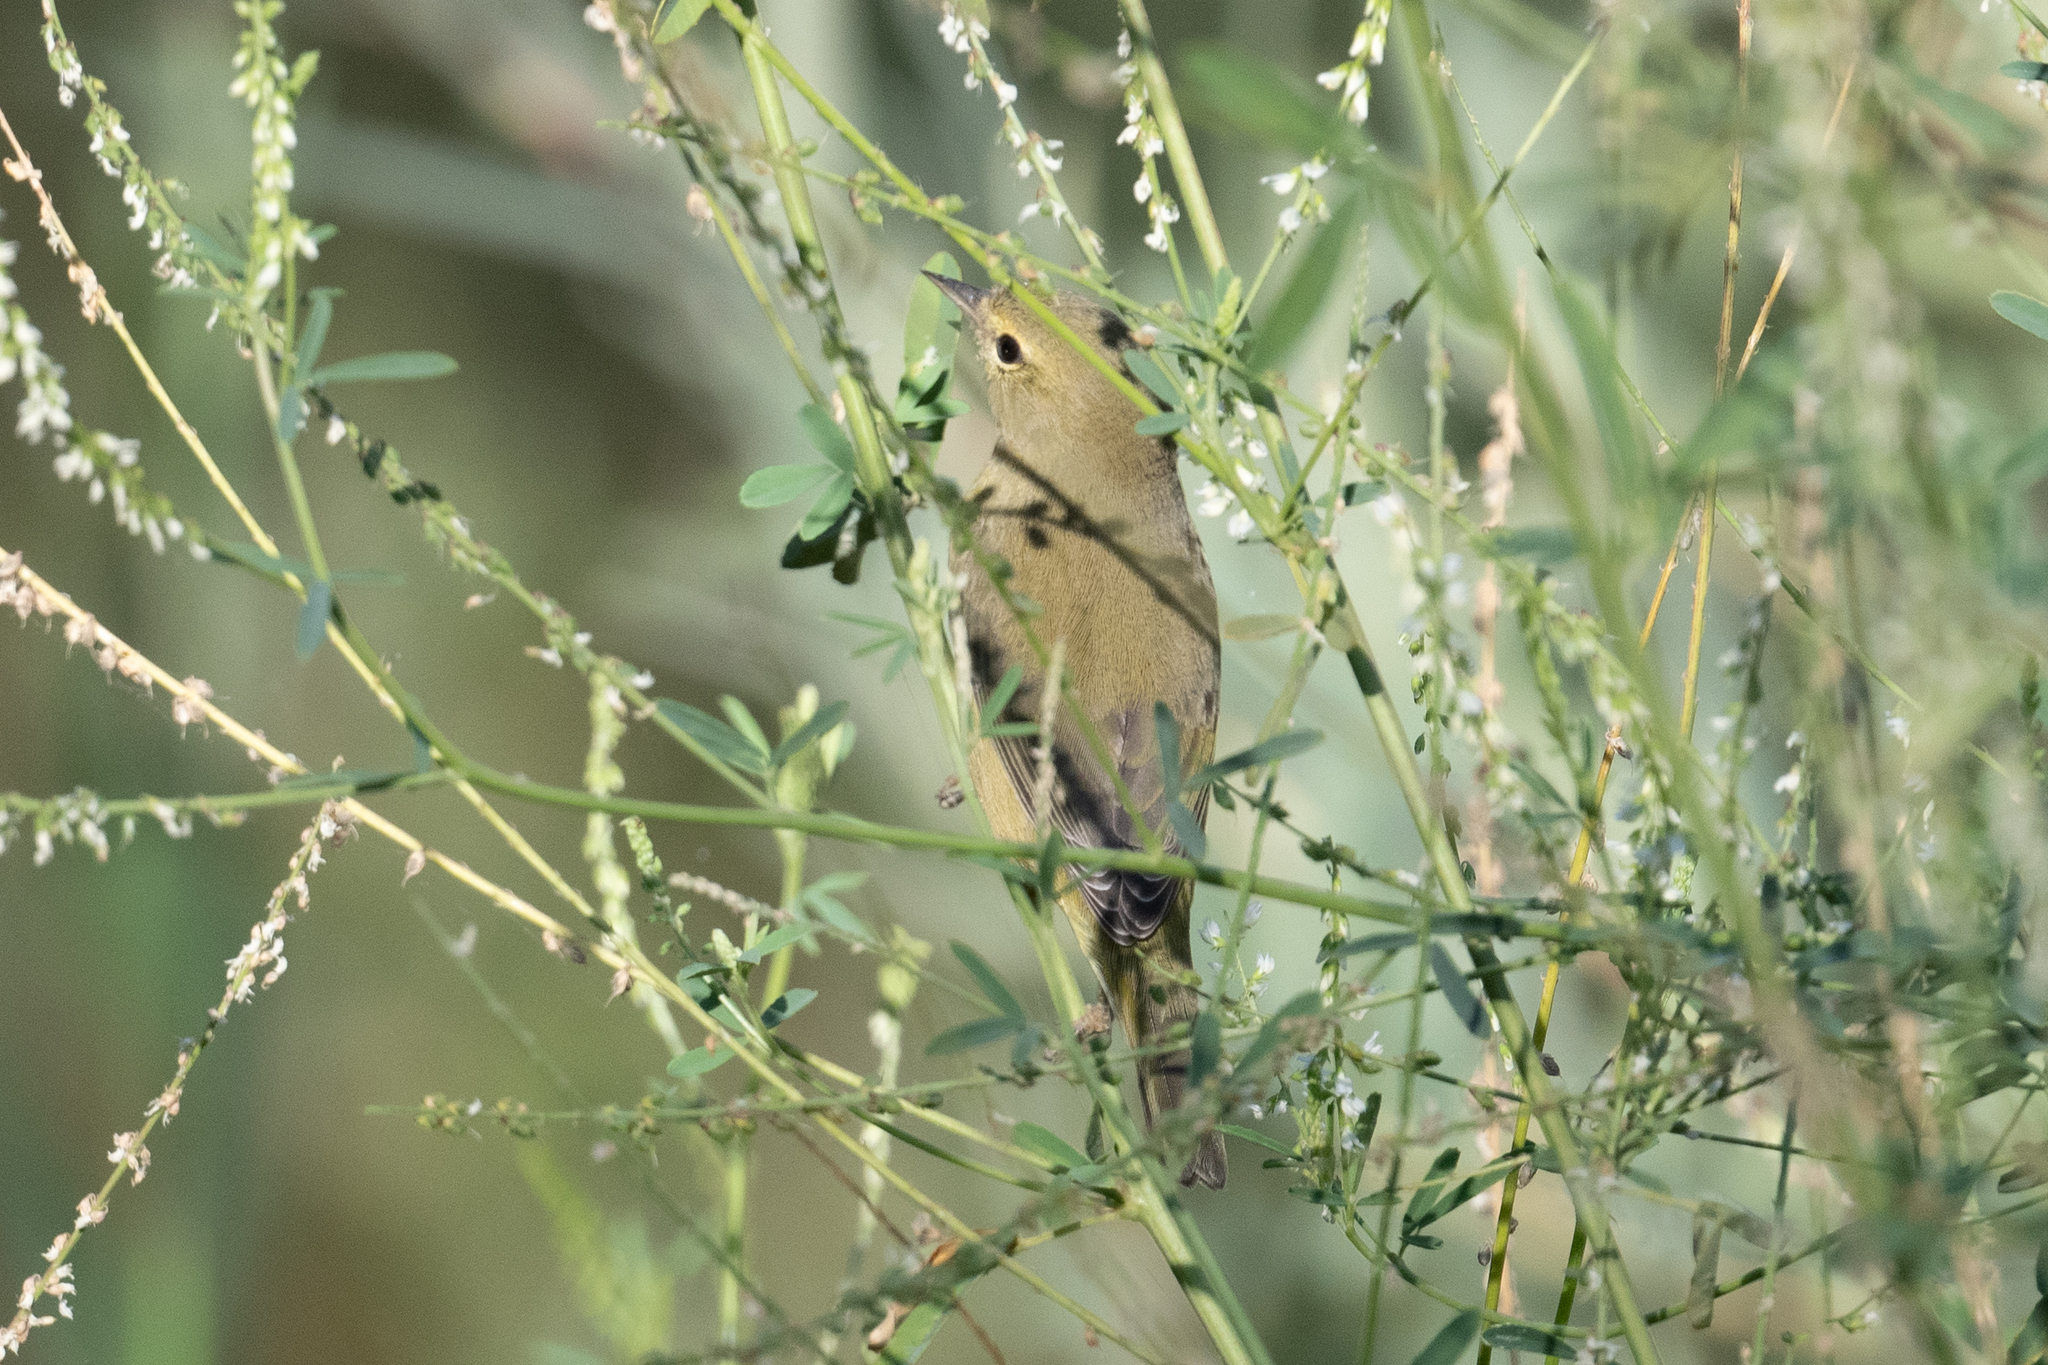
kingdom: Animalia
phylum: Chordata
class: Aves
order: Passeriformes
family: Parulidae
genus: Leiothlypis
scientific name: Leiothlypis celata
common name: Orange-crowned warbler
